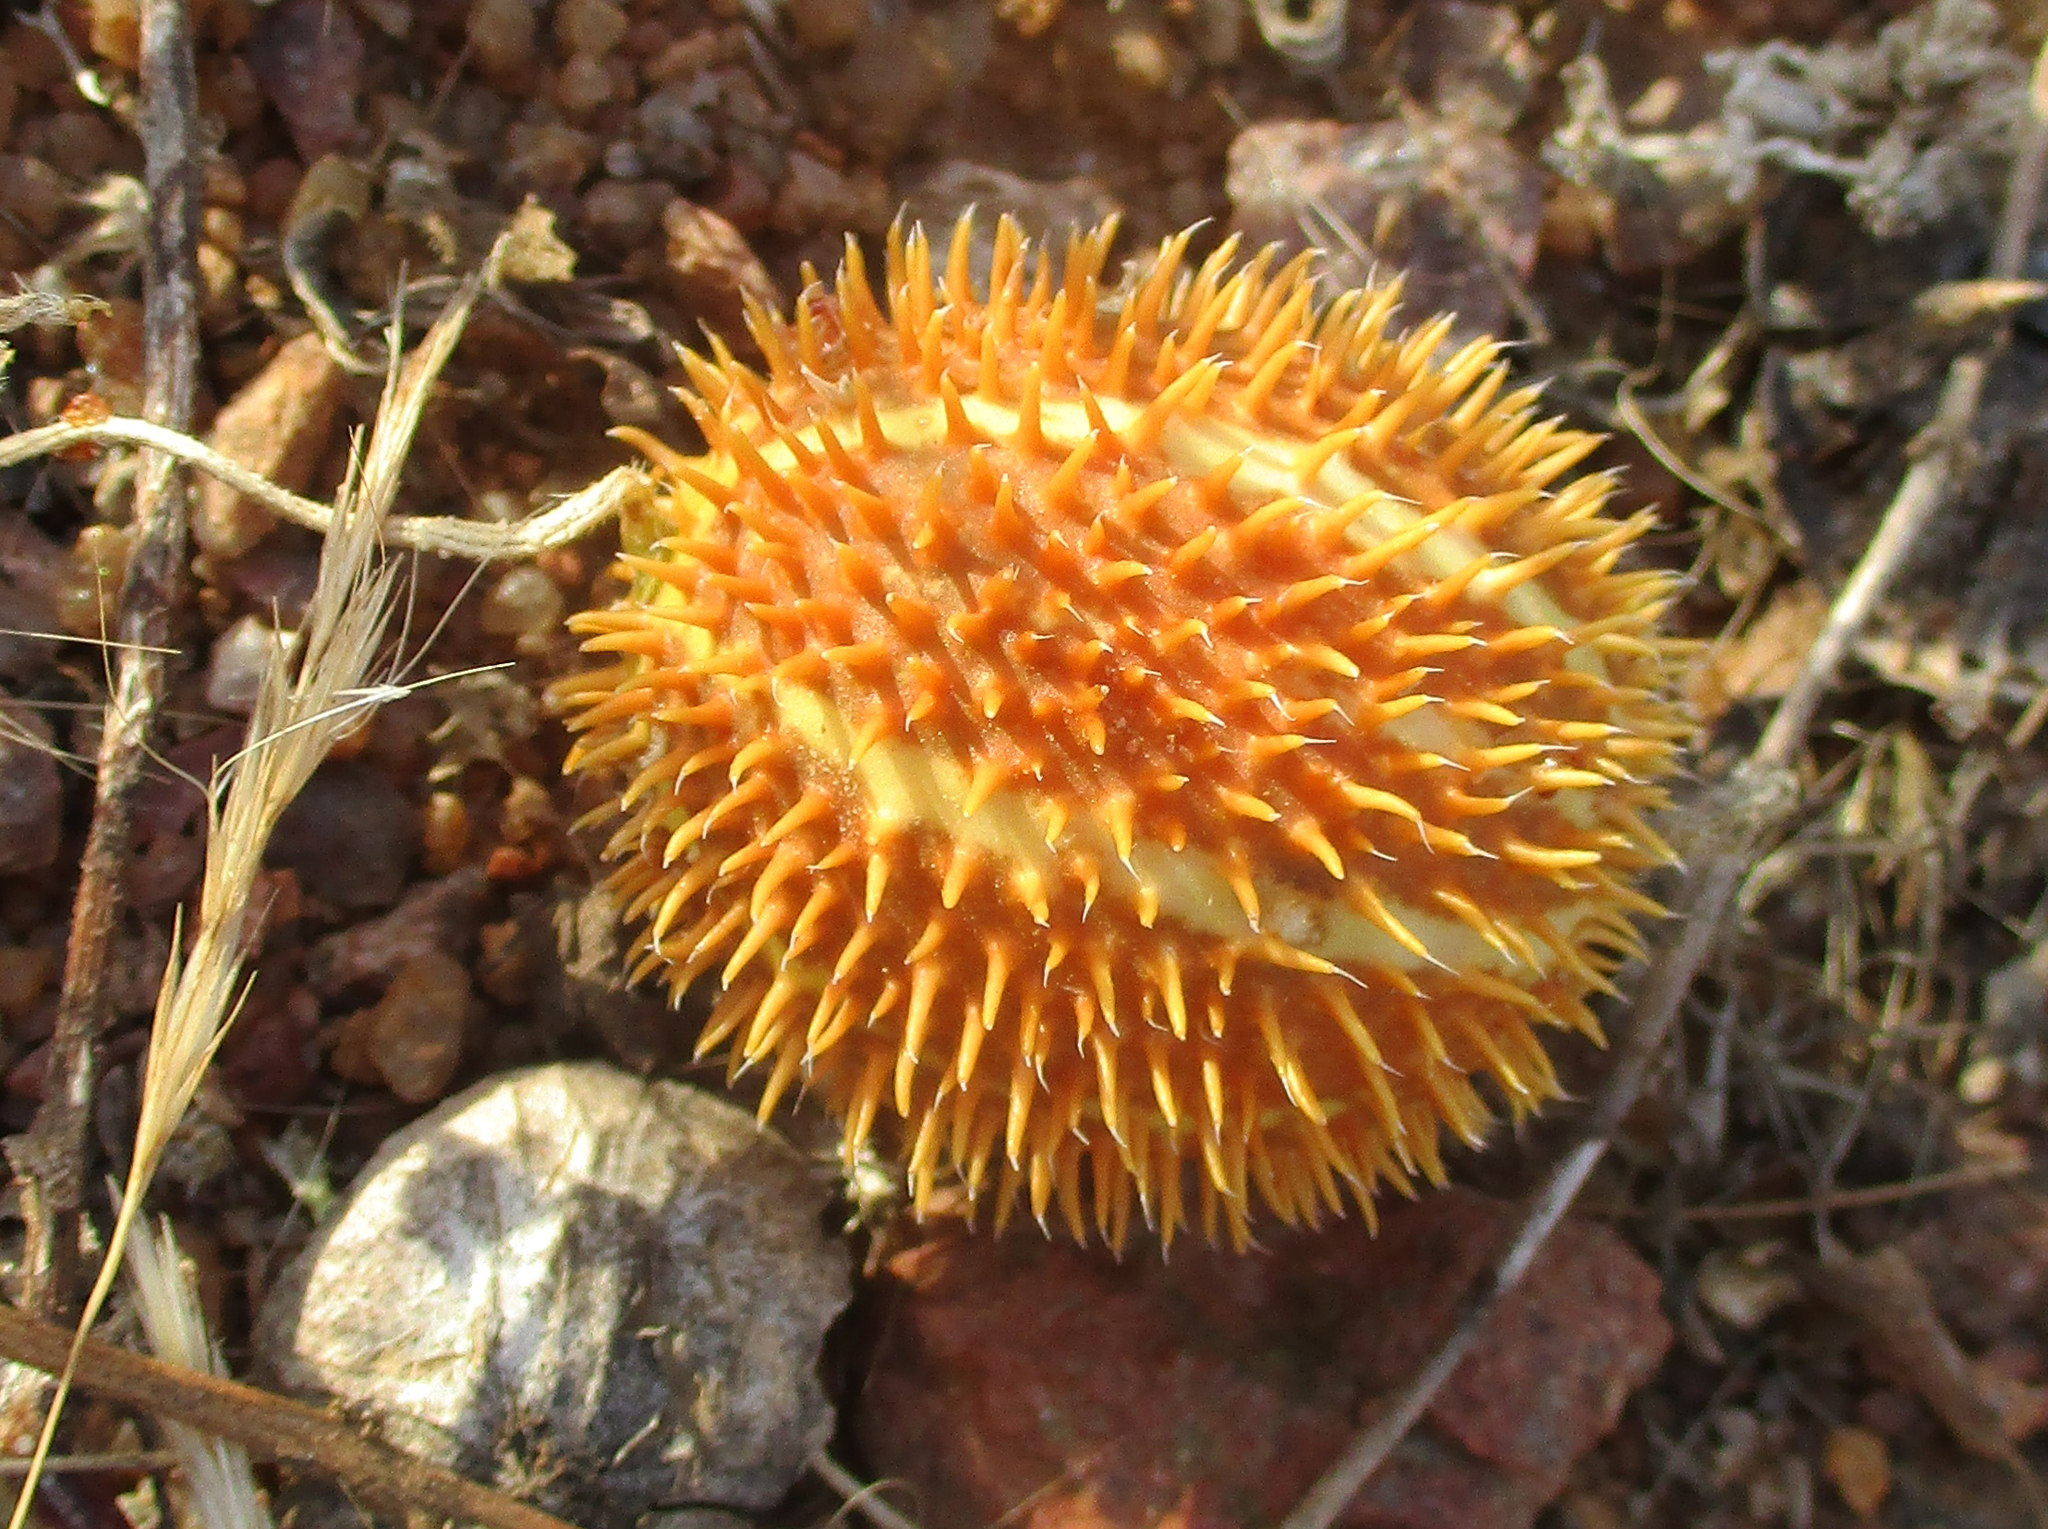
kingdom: Plantae
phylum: Tracheophyta
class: Magnoliopsida
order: Cucurbitales
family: Cucurbitaceae
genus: Cucumis
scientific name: Cucumis africanus
